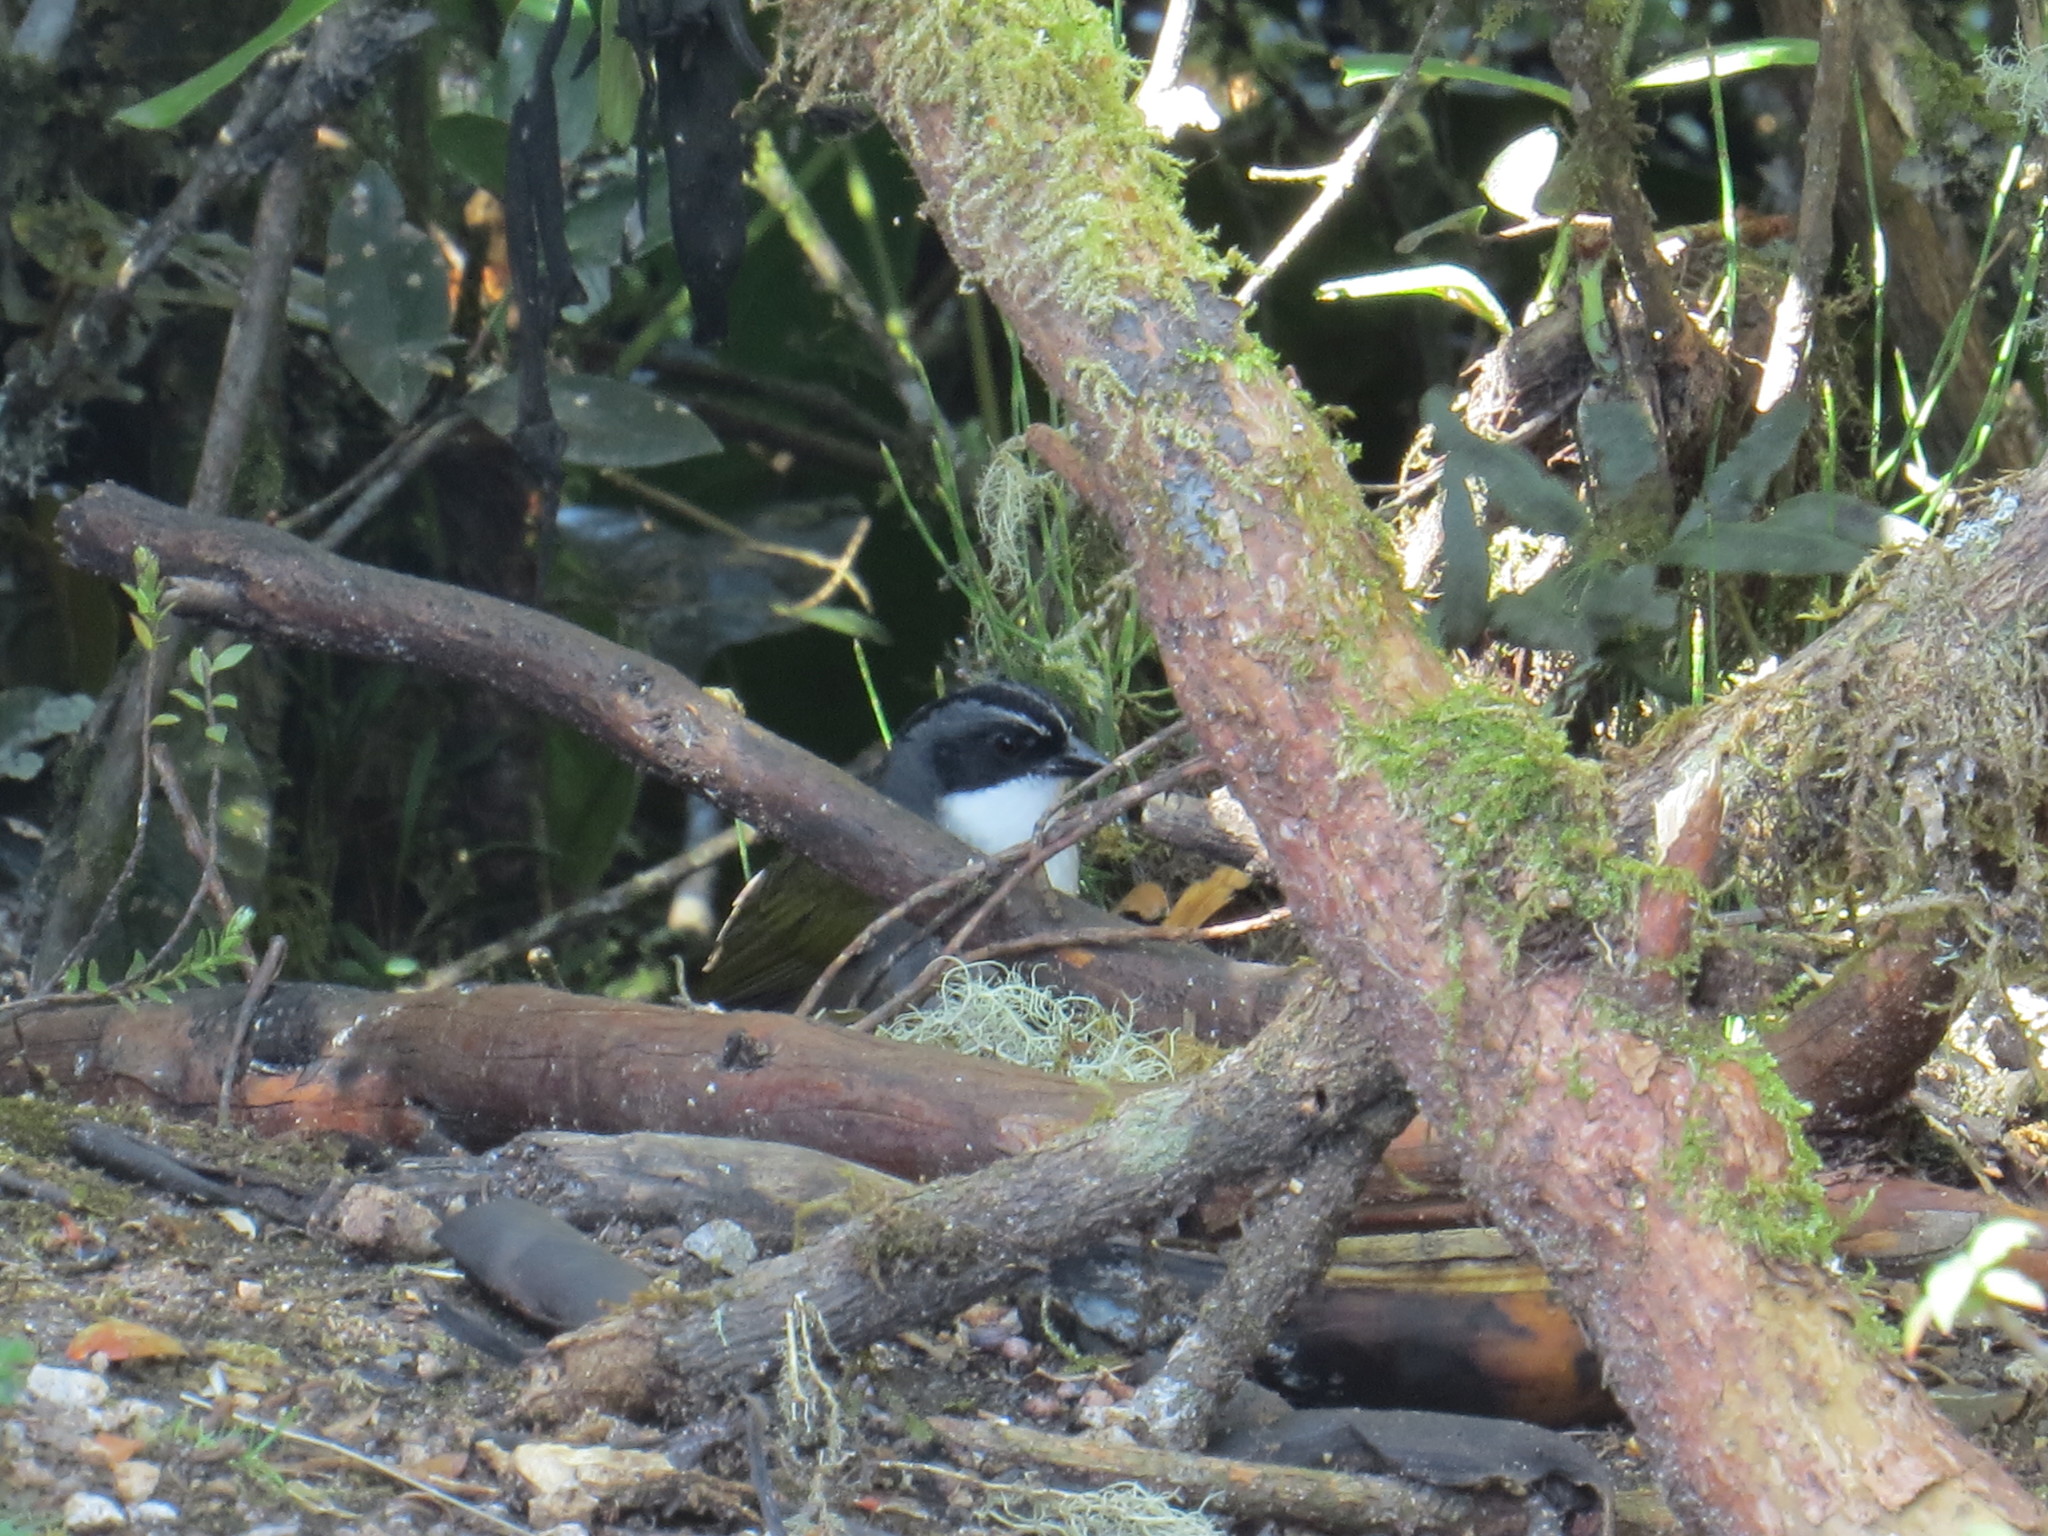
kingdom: Animalia
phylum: Chordata
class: Aves
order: Passeriformes
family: Passerellidae
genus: Arremon
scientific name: Arremon assimilis
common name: Grey-browed brushfinch
